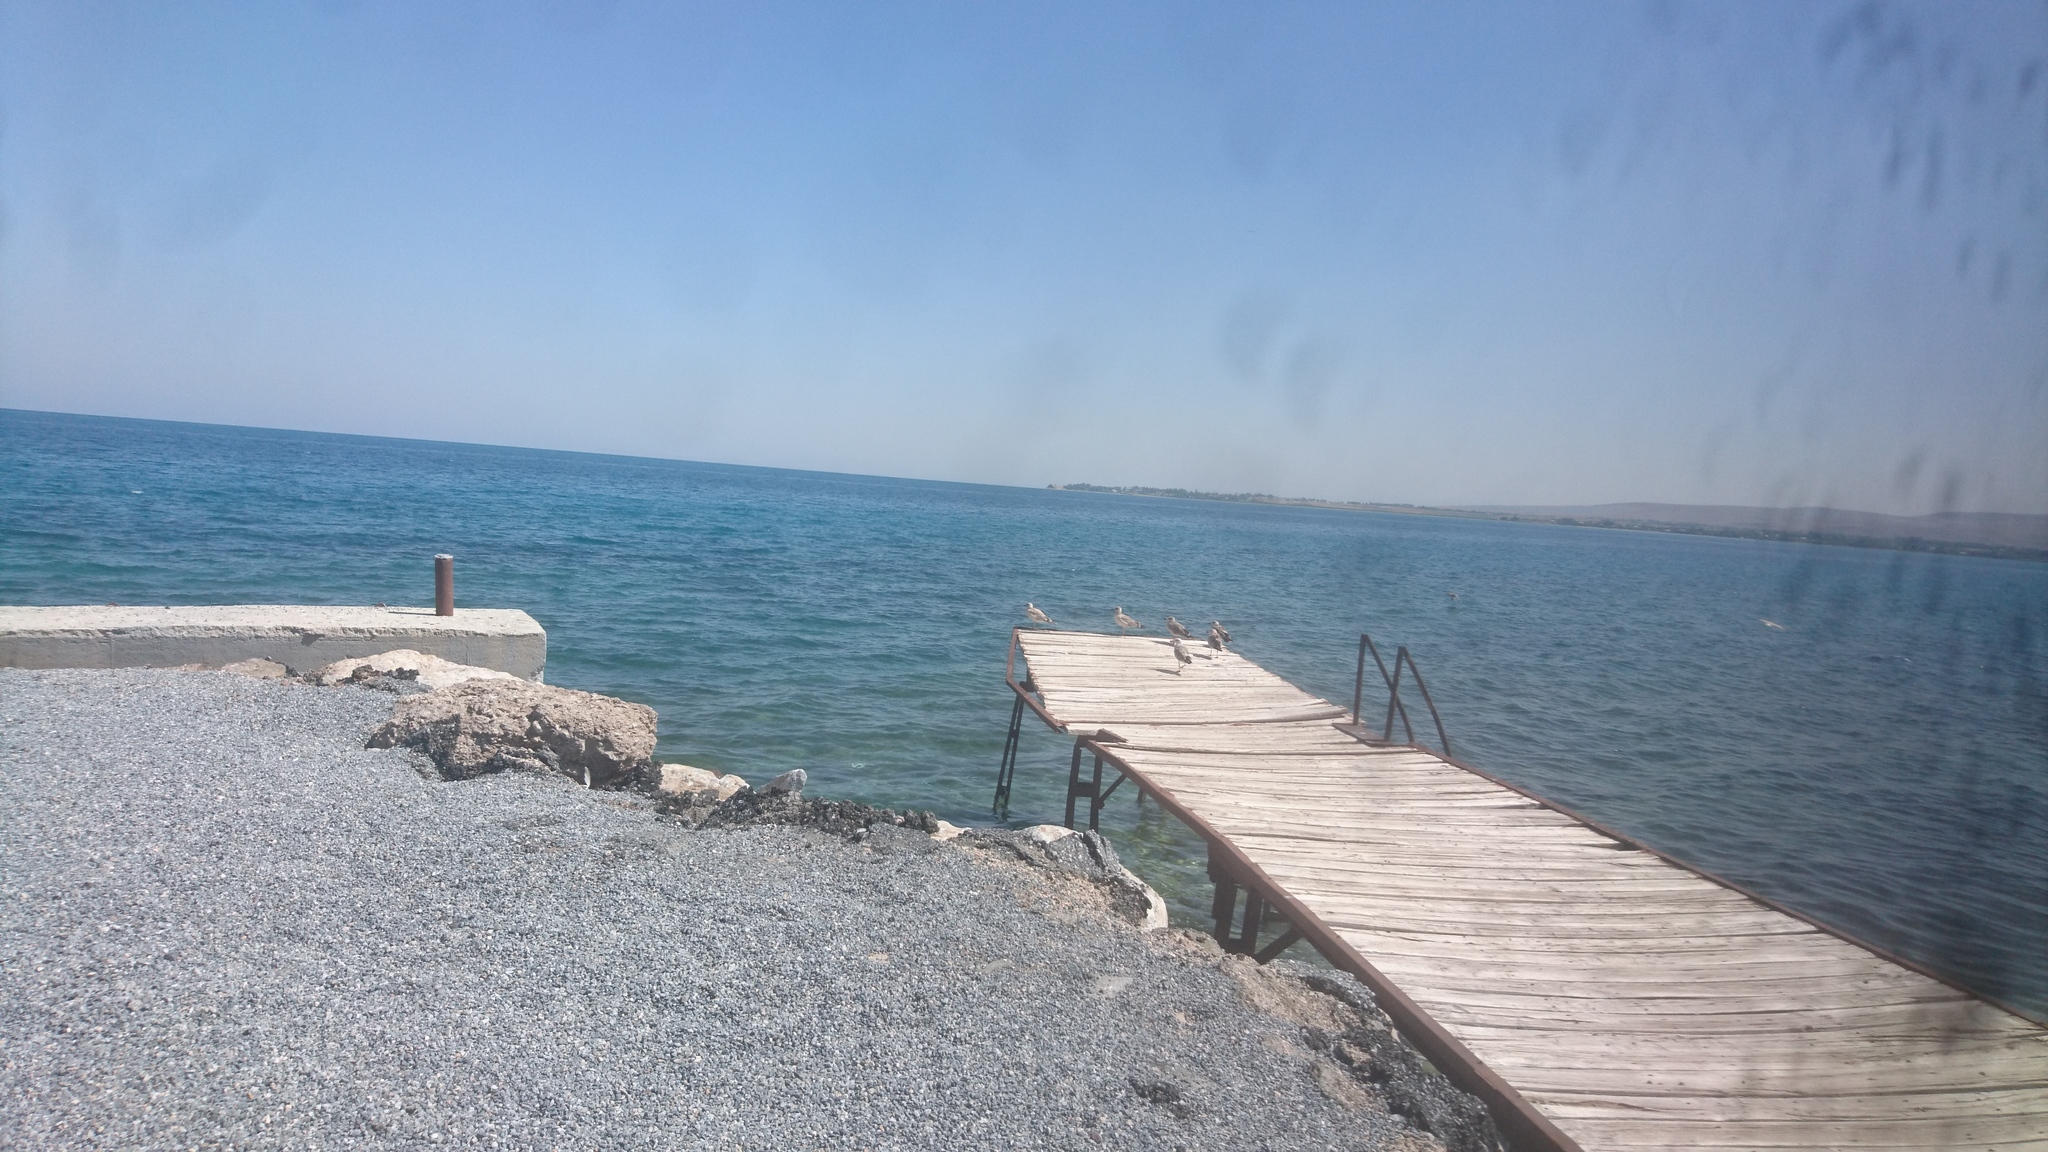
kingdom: Animalia
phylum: Chordata
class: Aves
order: Charadriiformes
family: Laridae
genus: Larus
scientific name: Larus armenicus
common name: Armenian gull
